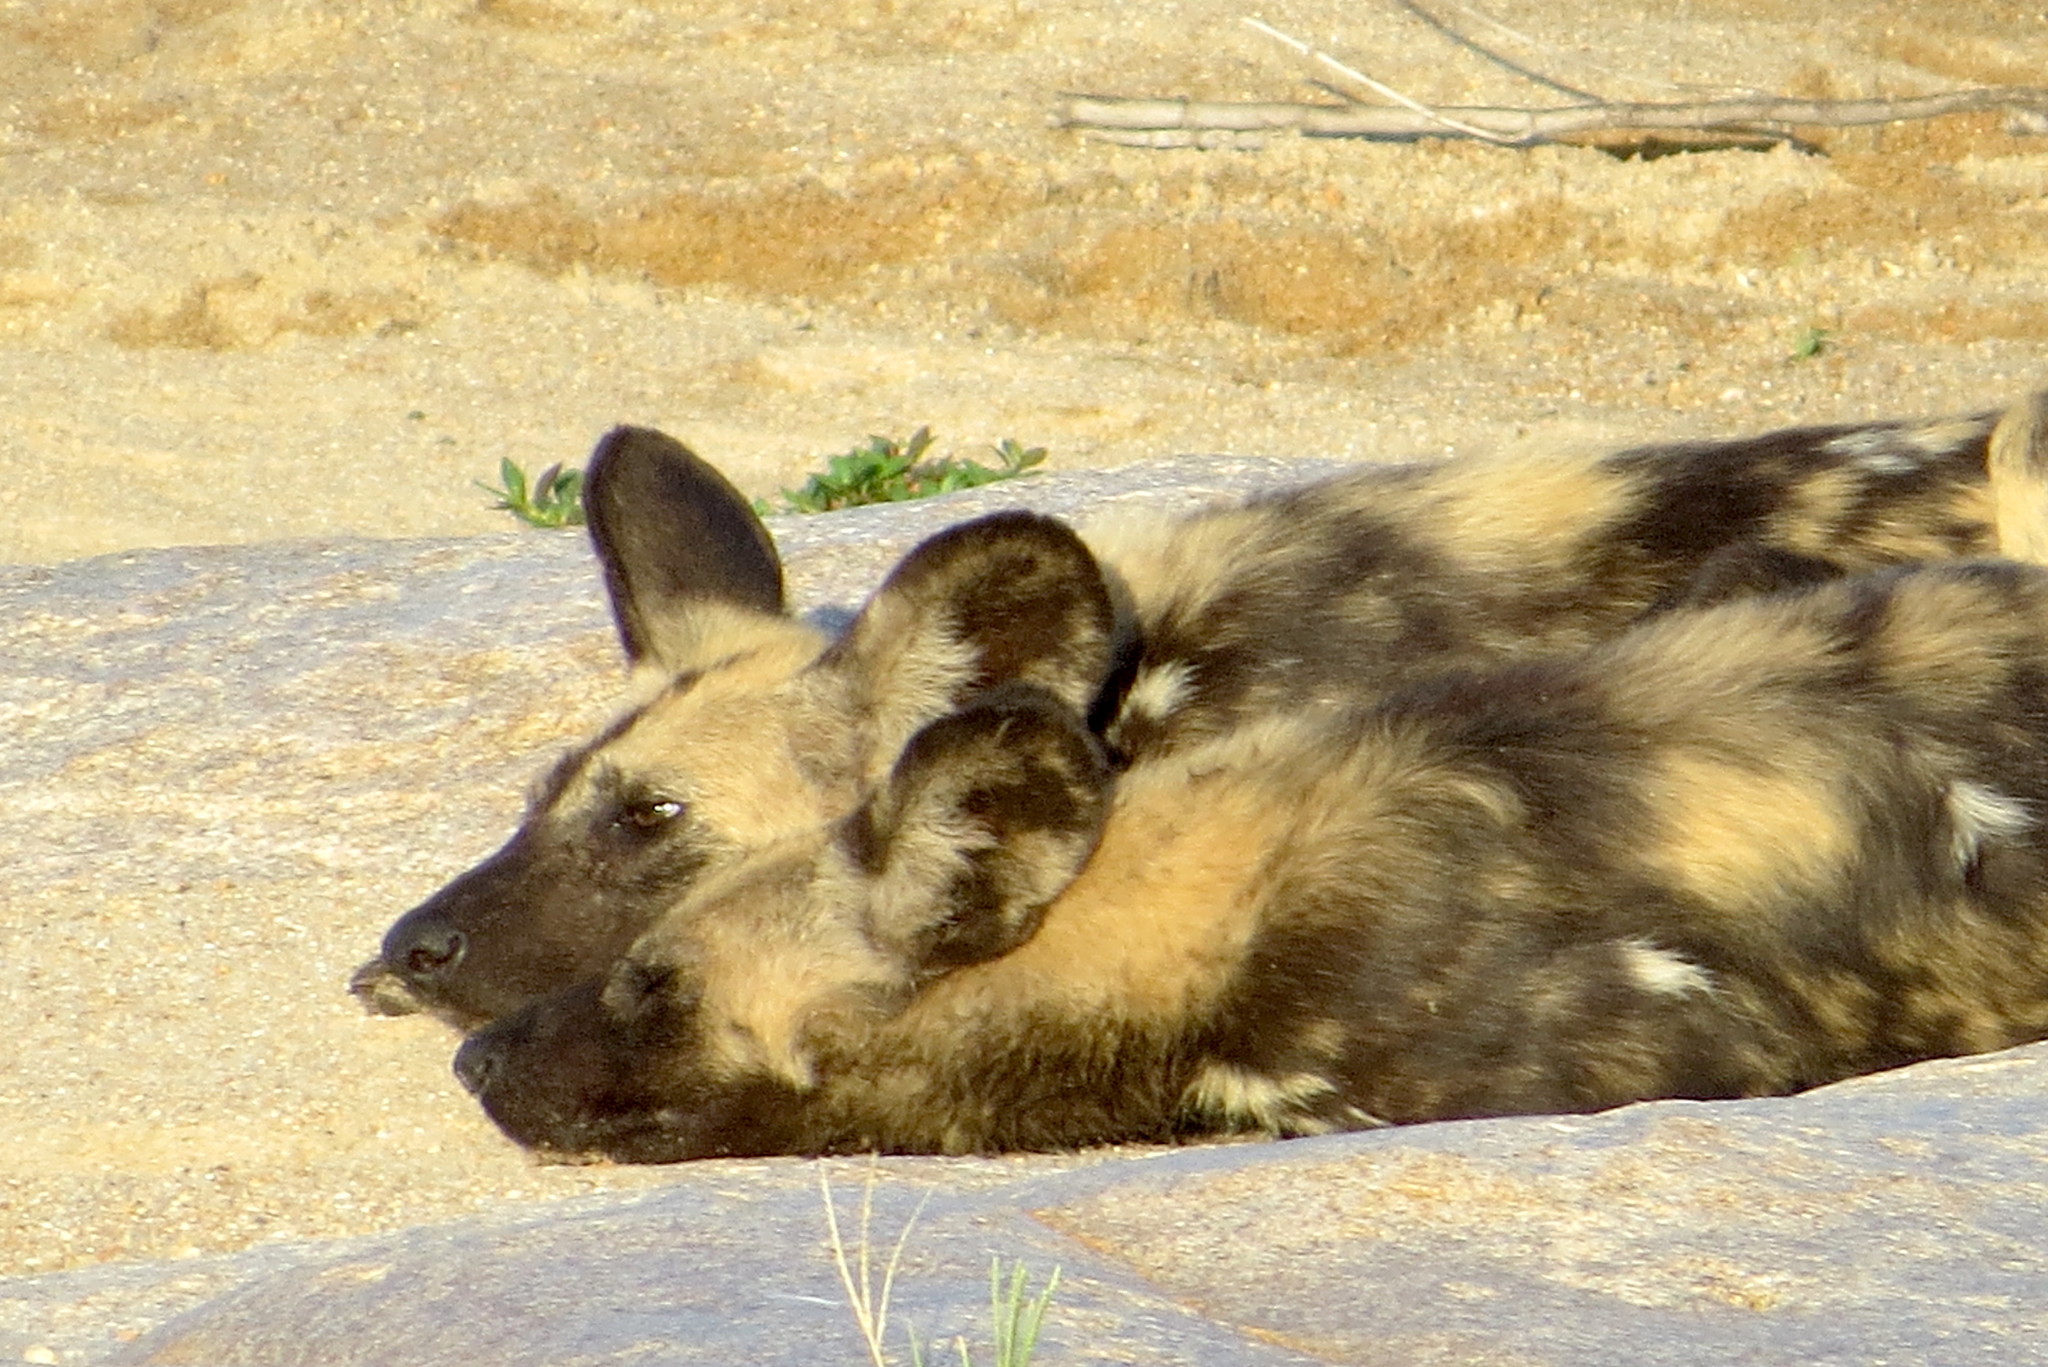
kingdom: Animalia
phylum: Chordata
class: Mammalia
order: Carnivora
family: Canidae
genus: Lycaon
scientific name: Lycaon pictus
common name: African wild dog
